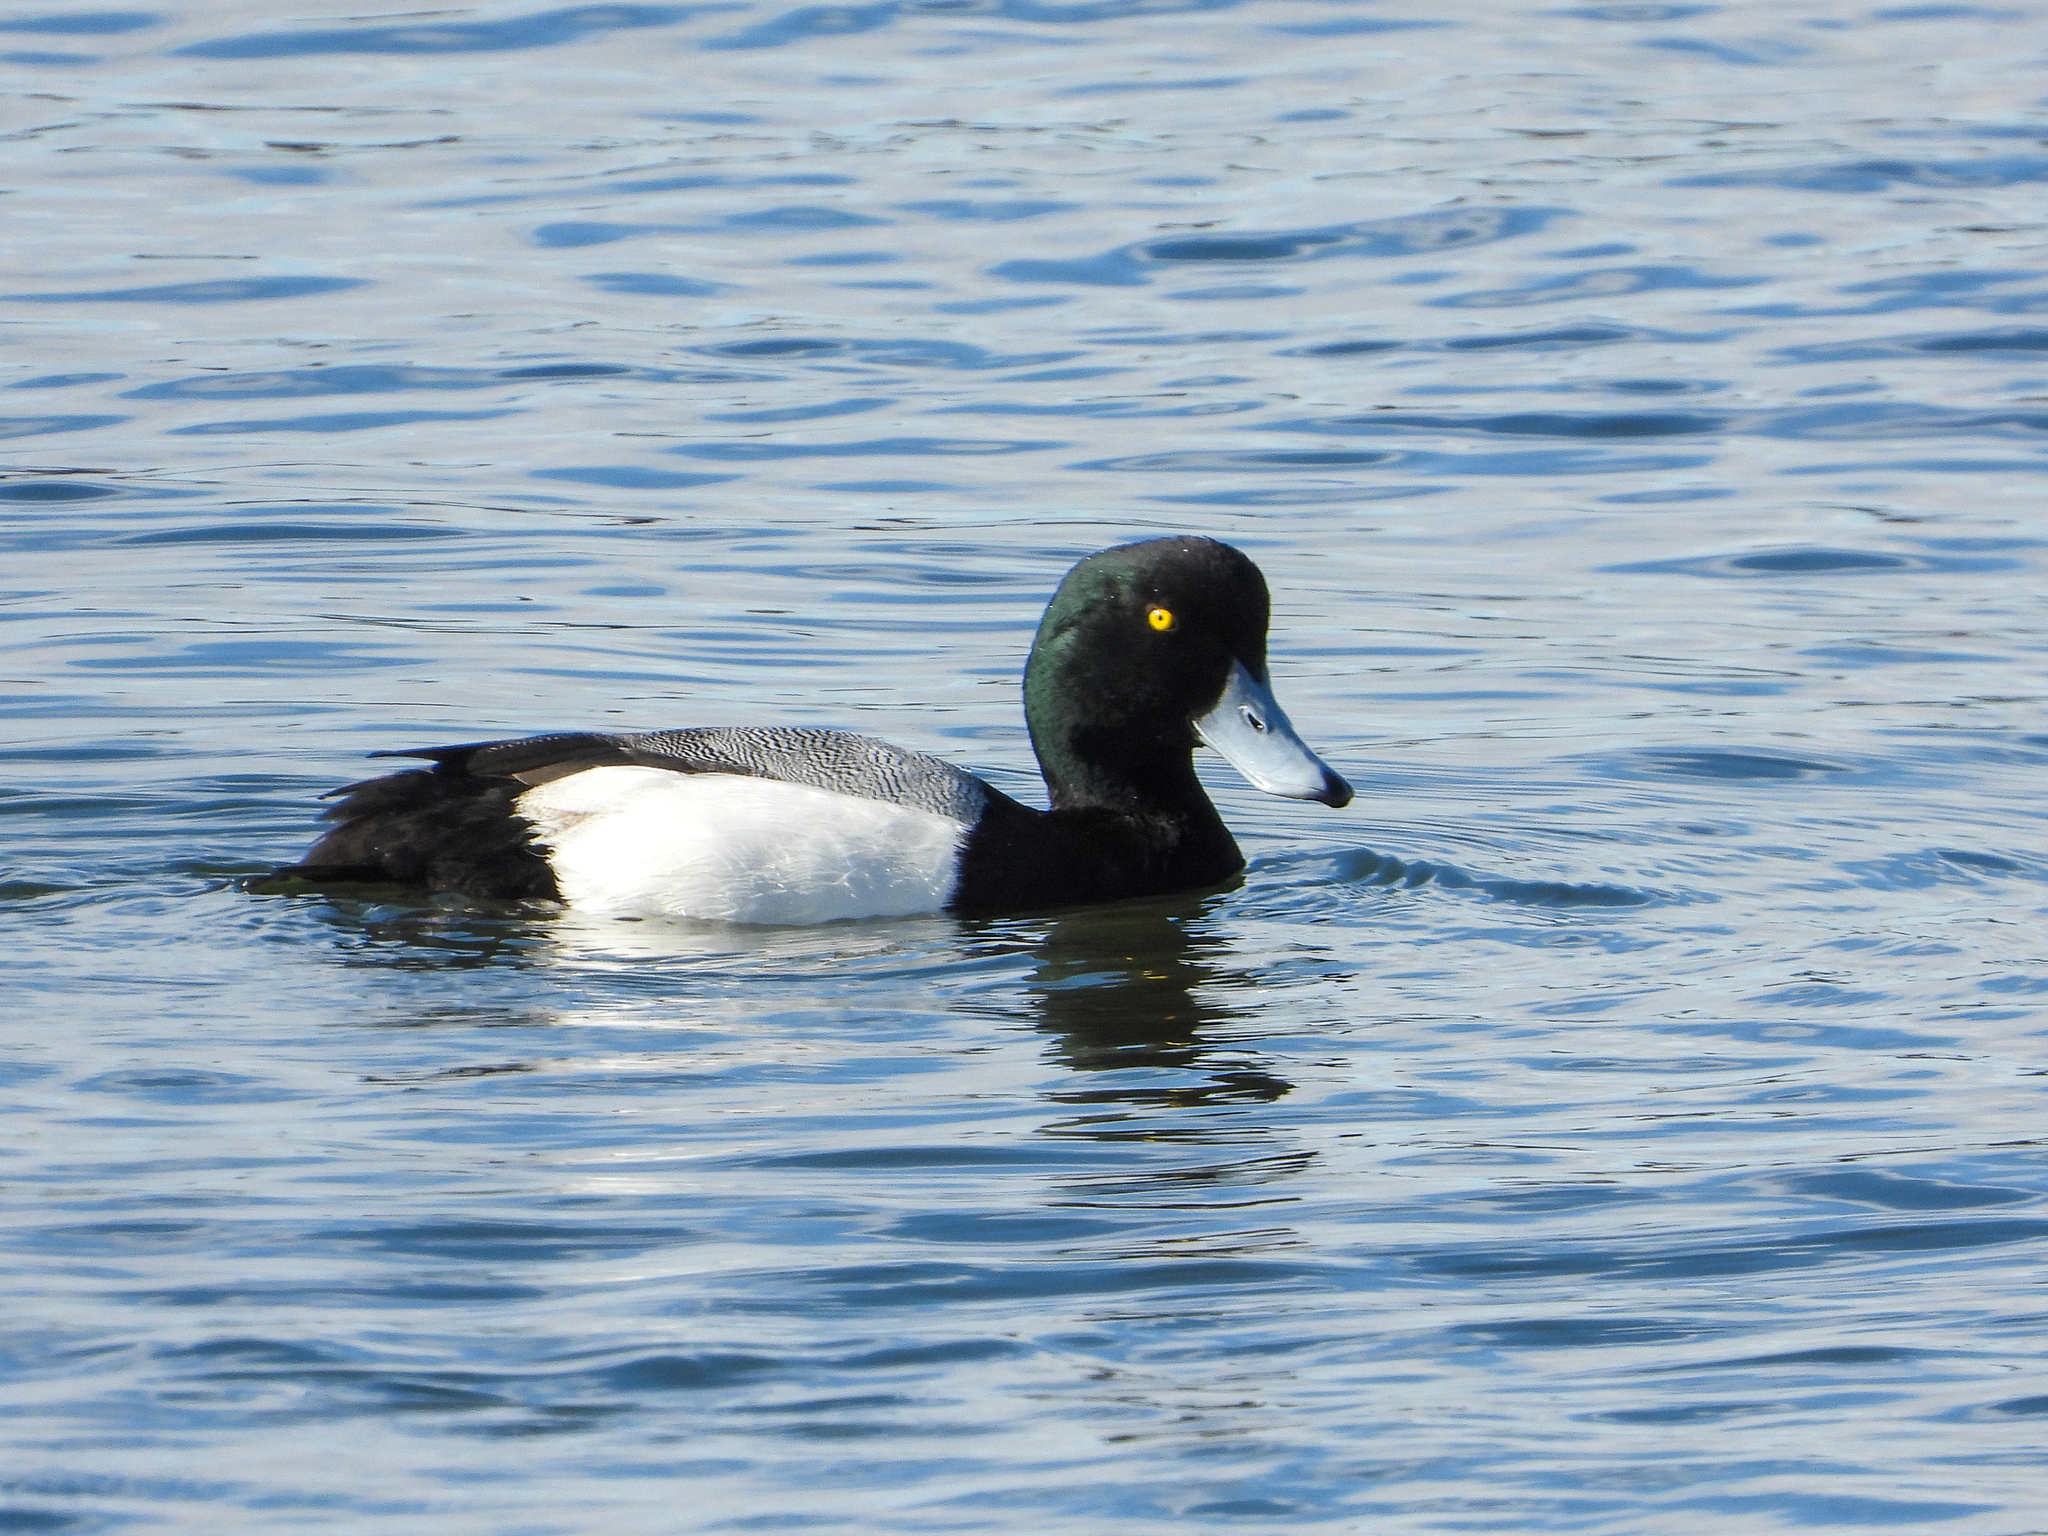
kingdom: Animalia
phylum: Chordata
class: Aves
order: Anseriformes
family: Anatidae
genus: Aythya
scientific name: Aythya marila
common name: Greater scaup
